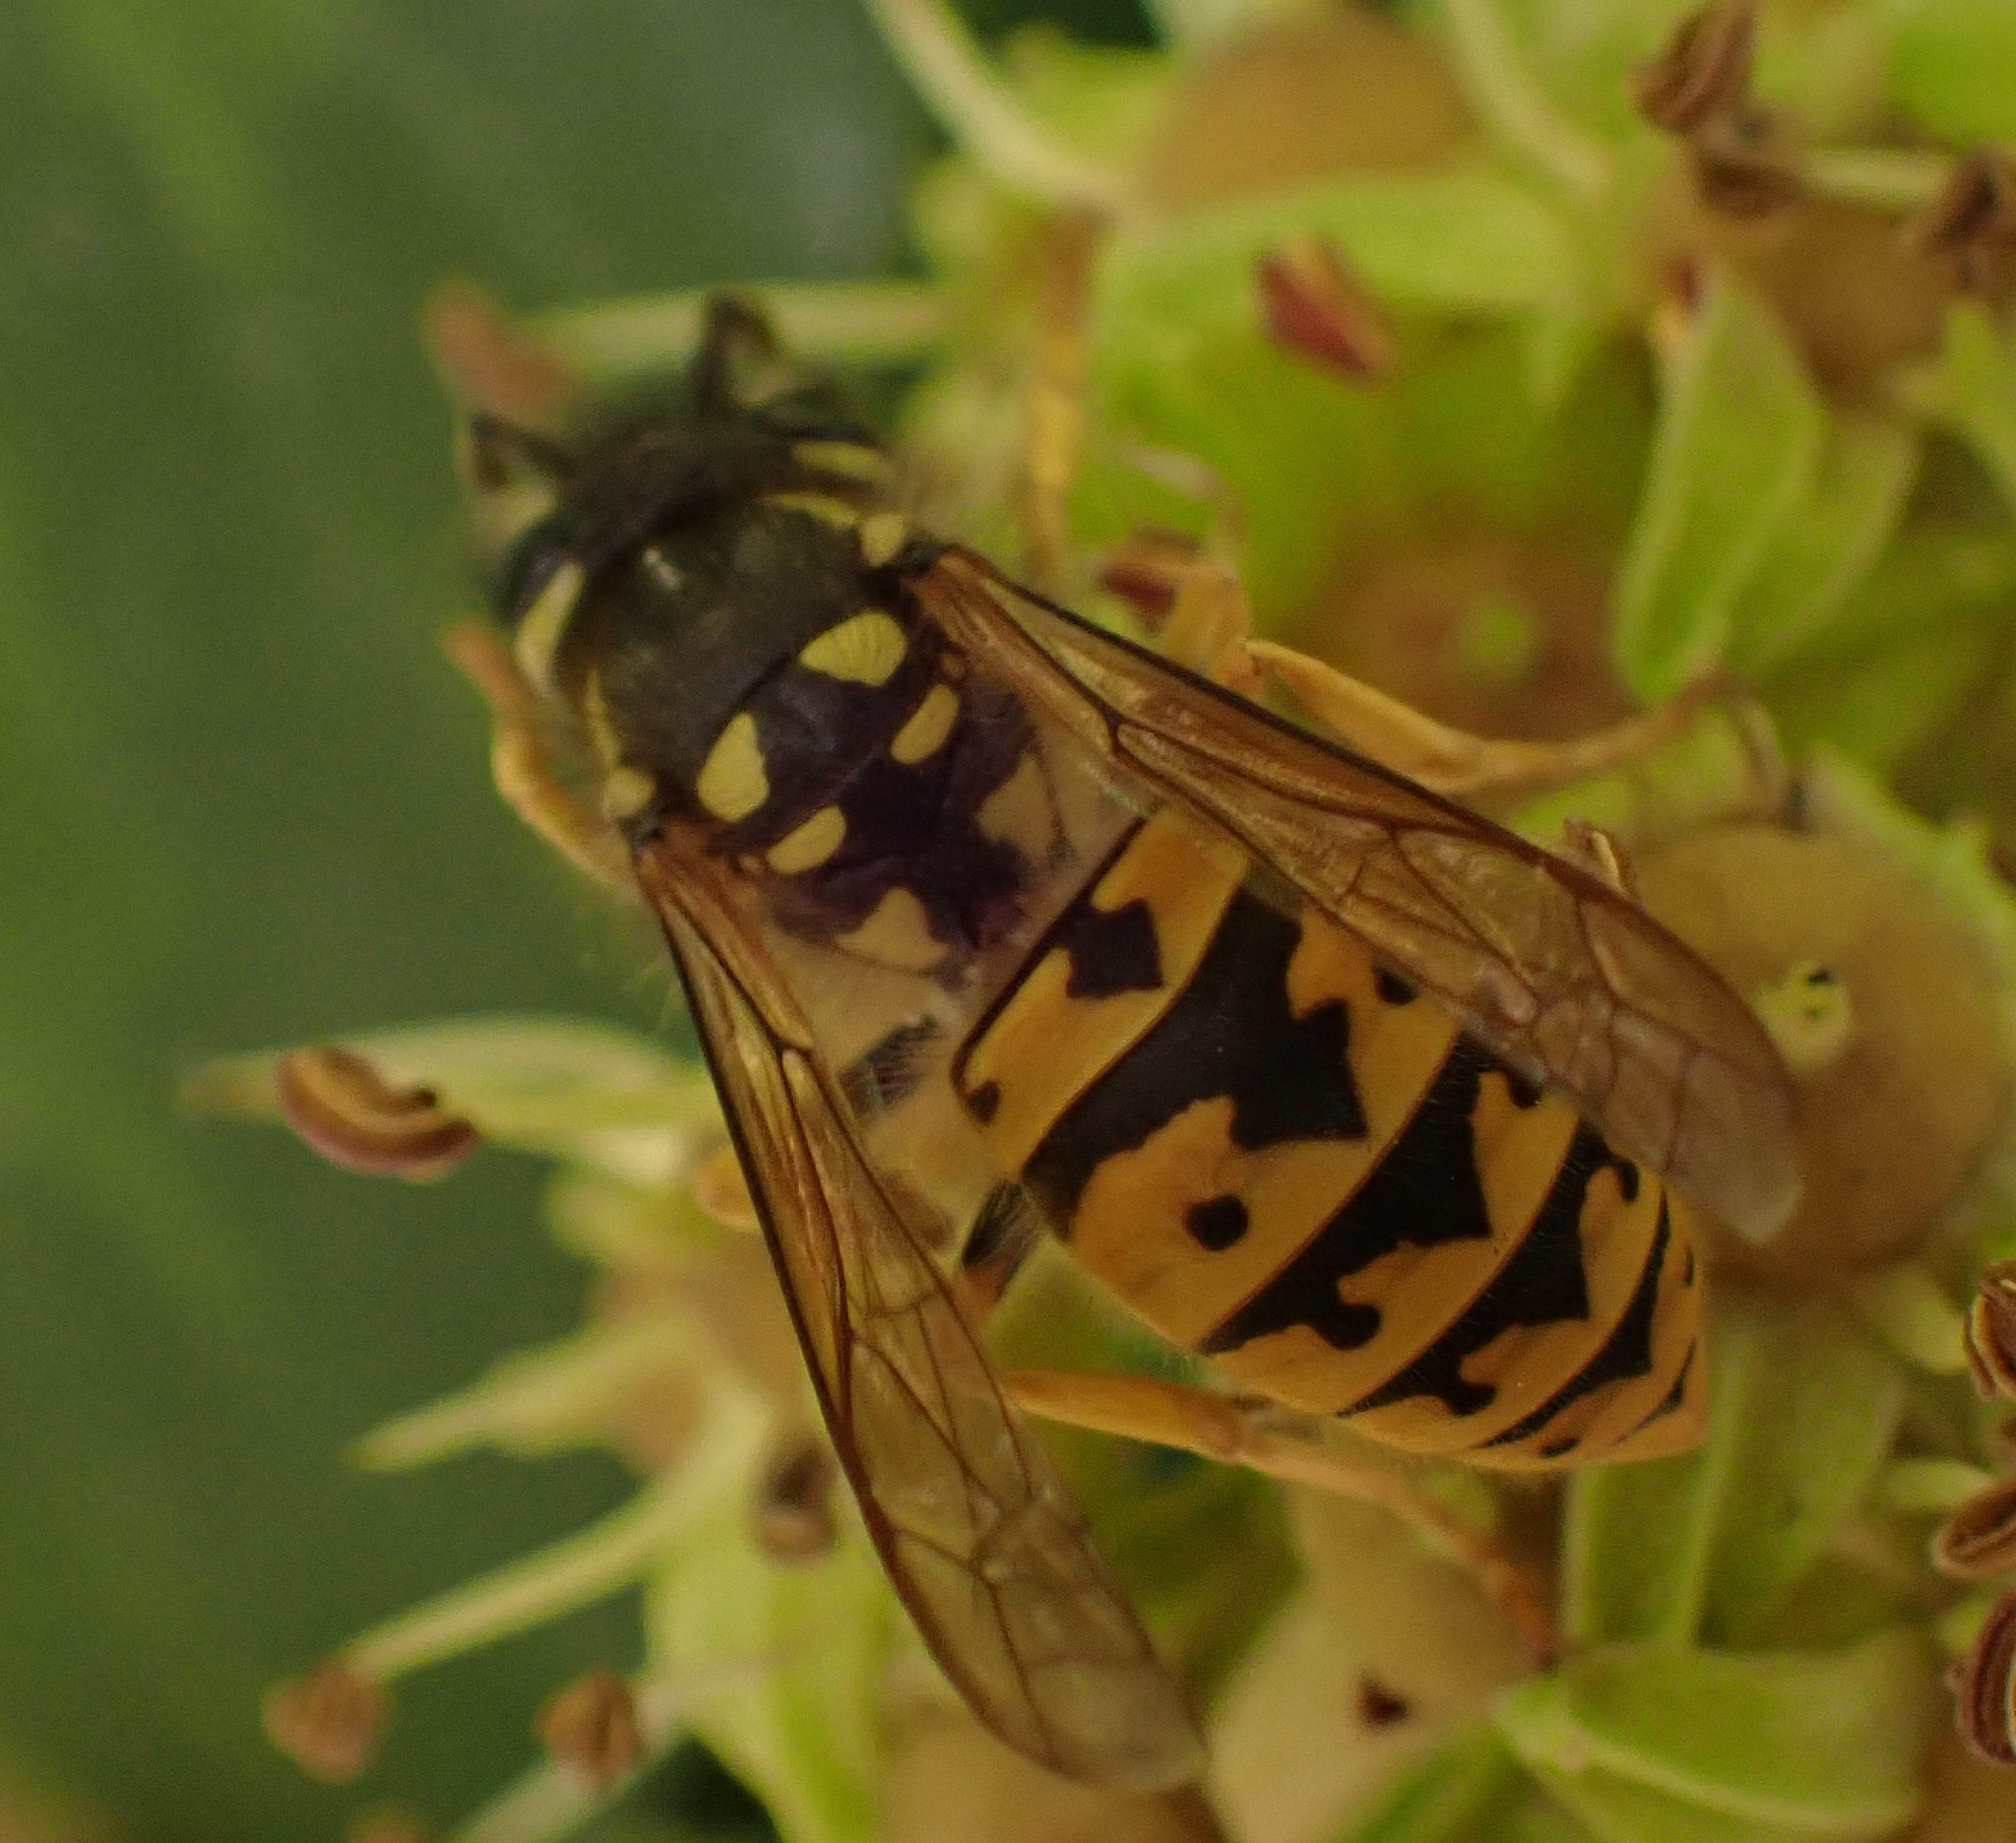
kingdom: Animalia
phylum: Arthropoda
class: Insecta
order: Hymenoptera
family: Vespidae
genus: Vespula
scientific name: Vespula germanica
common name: German wasp
